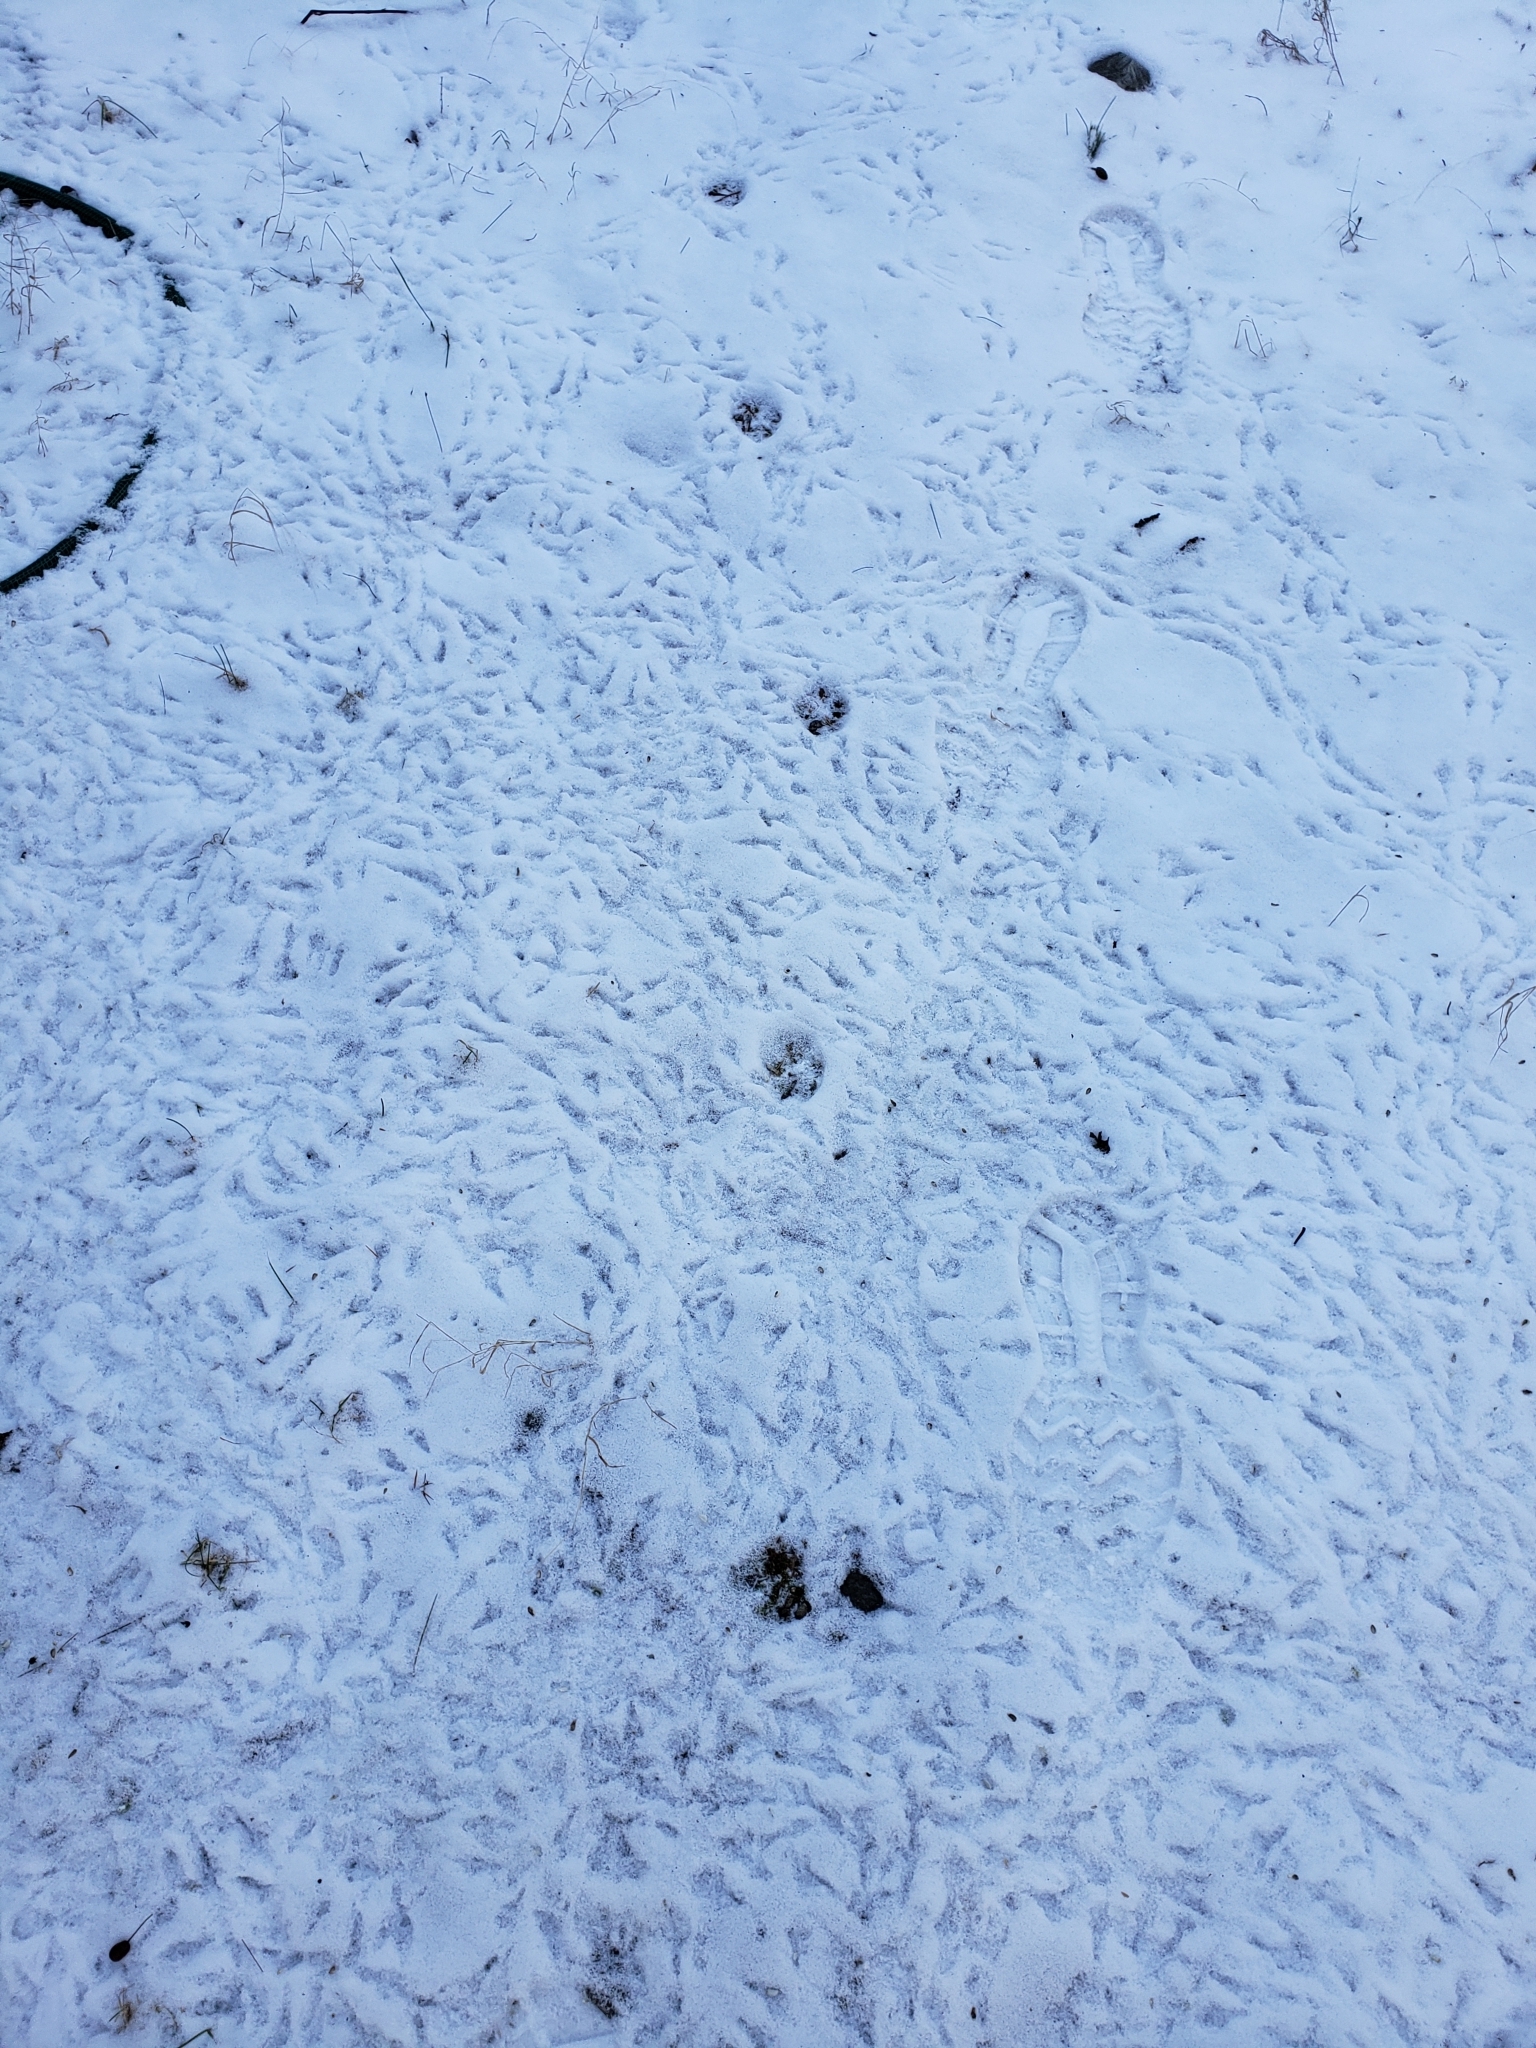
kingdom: Animalia
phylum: Chordata
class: Mammalia
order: Carnivora
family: Felidae
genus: Lynx
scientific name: Lynx rufus
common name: Bobcat
